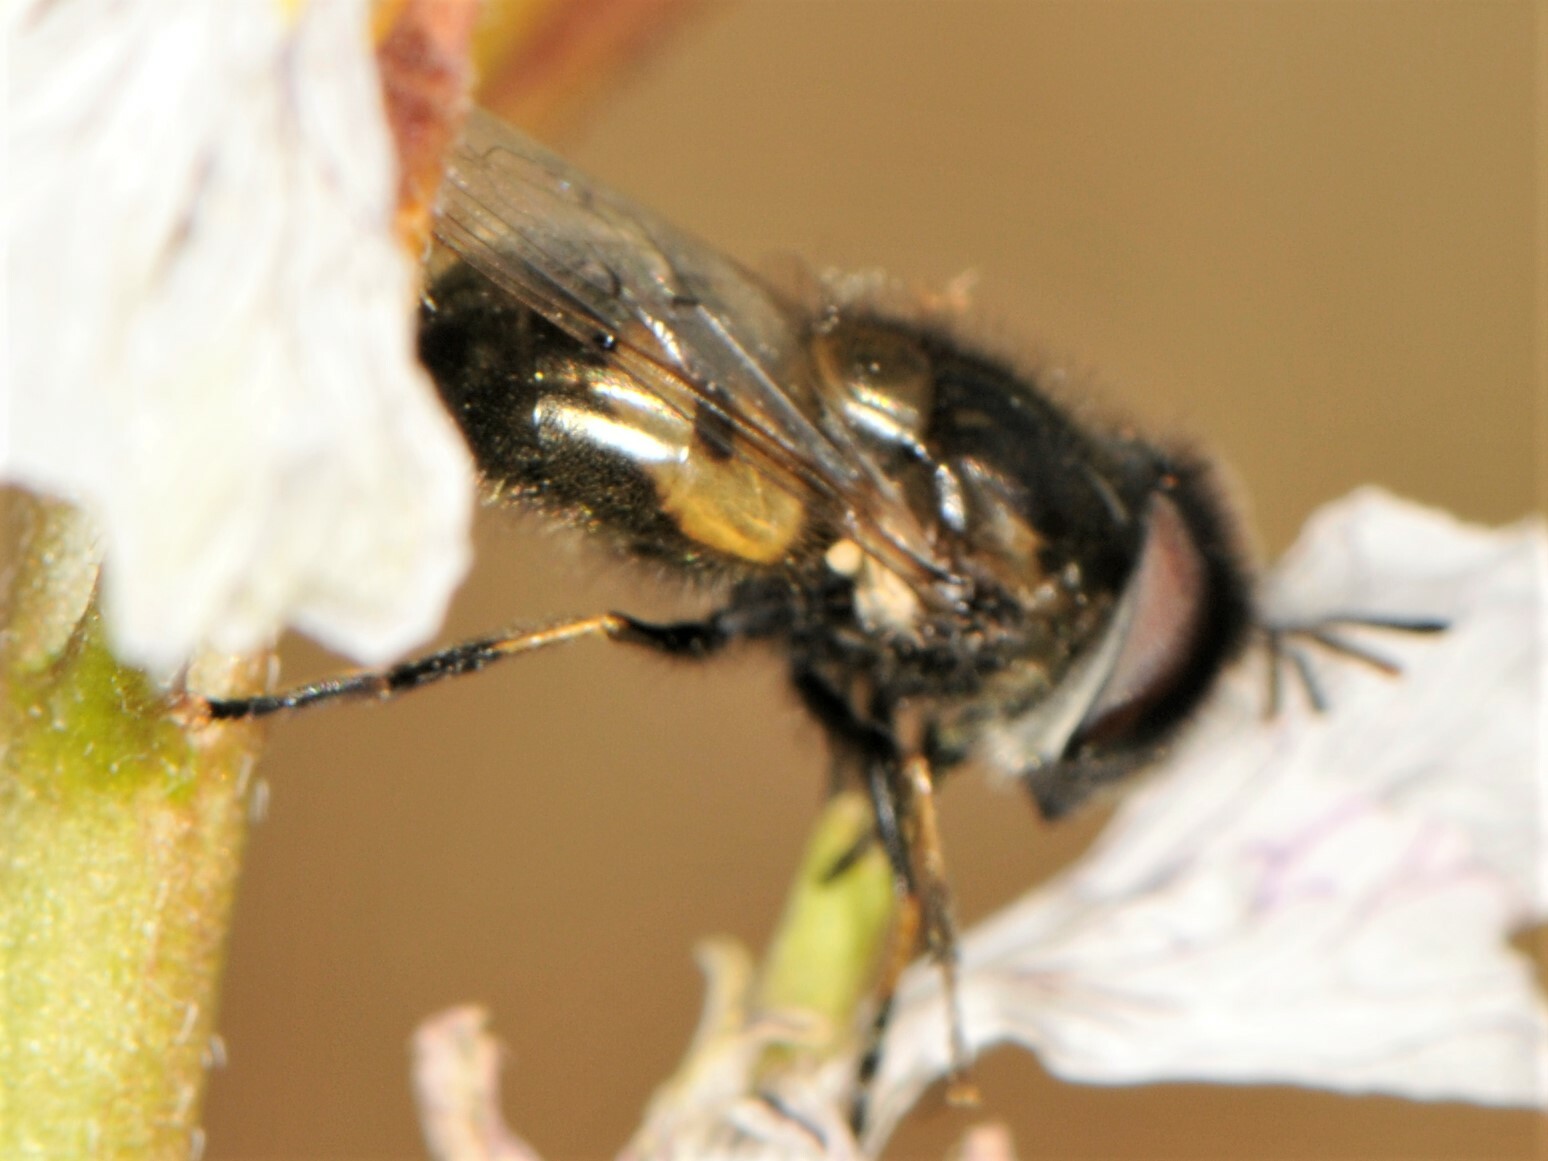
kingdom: Animalia
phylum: Arthropoda
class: Insecta
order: Diptera
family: Syrphidae
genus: Copestylum
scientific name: Copestylum lentum
